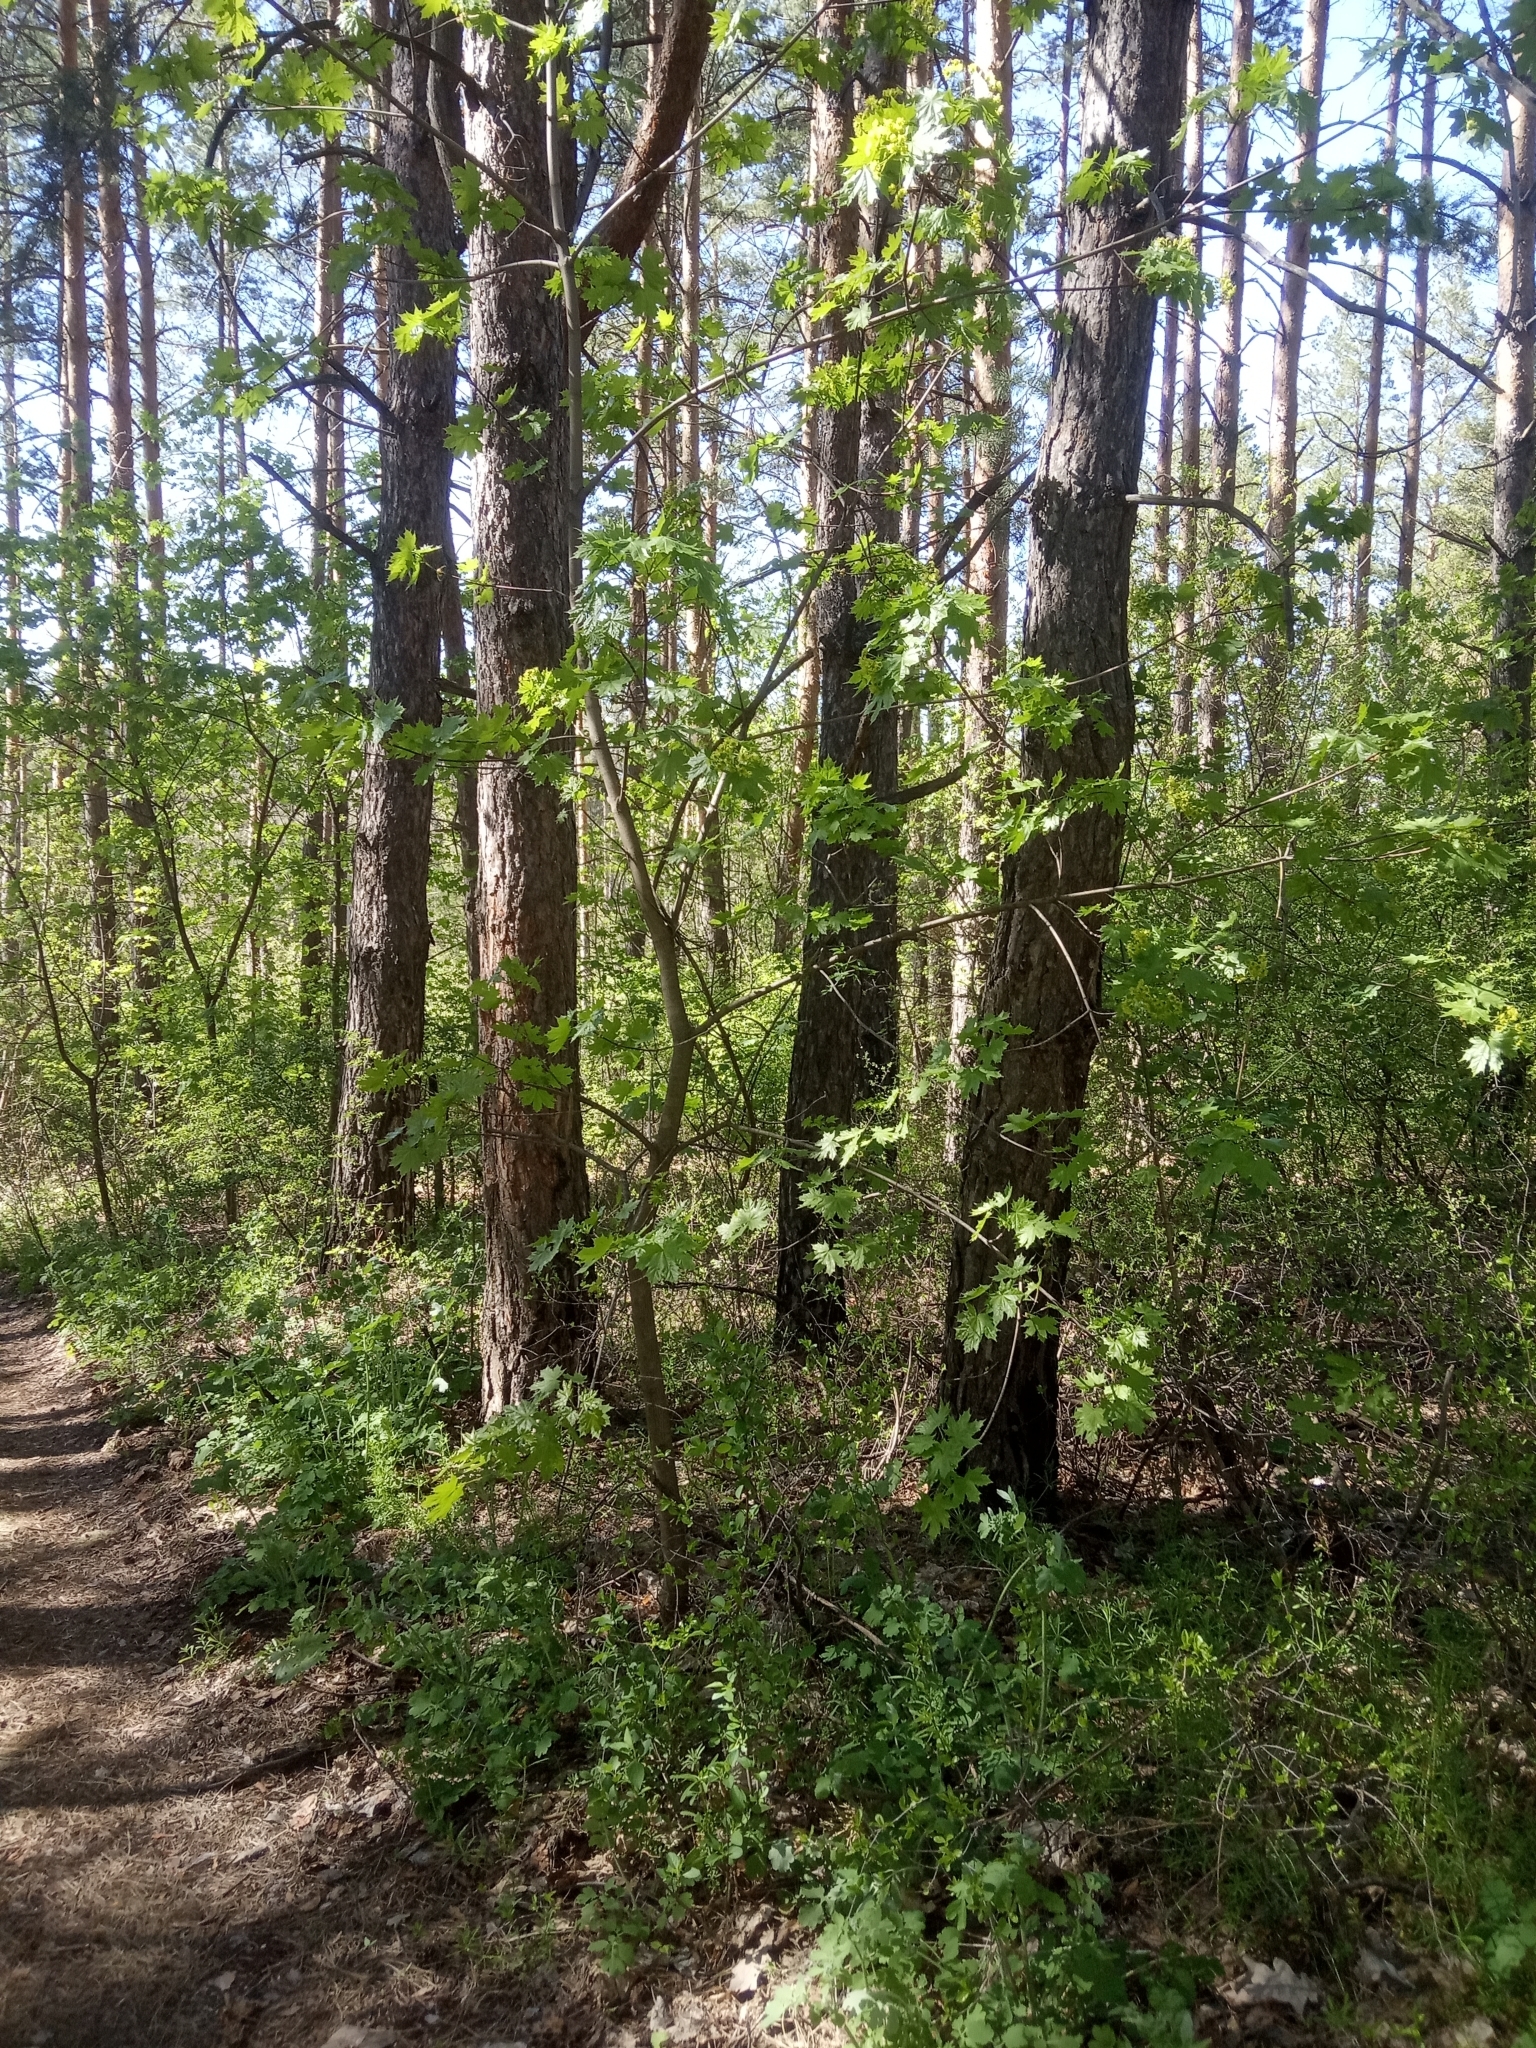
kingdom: Plantae
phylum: Tracheophyta
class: Magnoliopsida
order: Sapindales
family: Sapindaceae
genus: Acer
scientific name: Acer platanoides
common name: Norway maple
